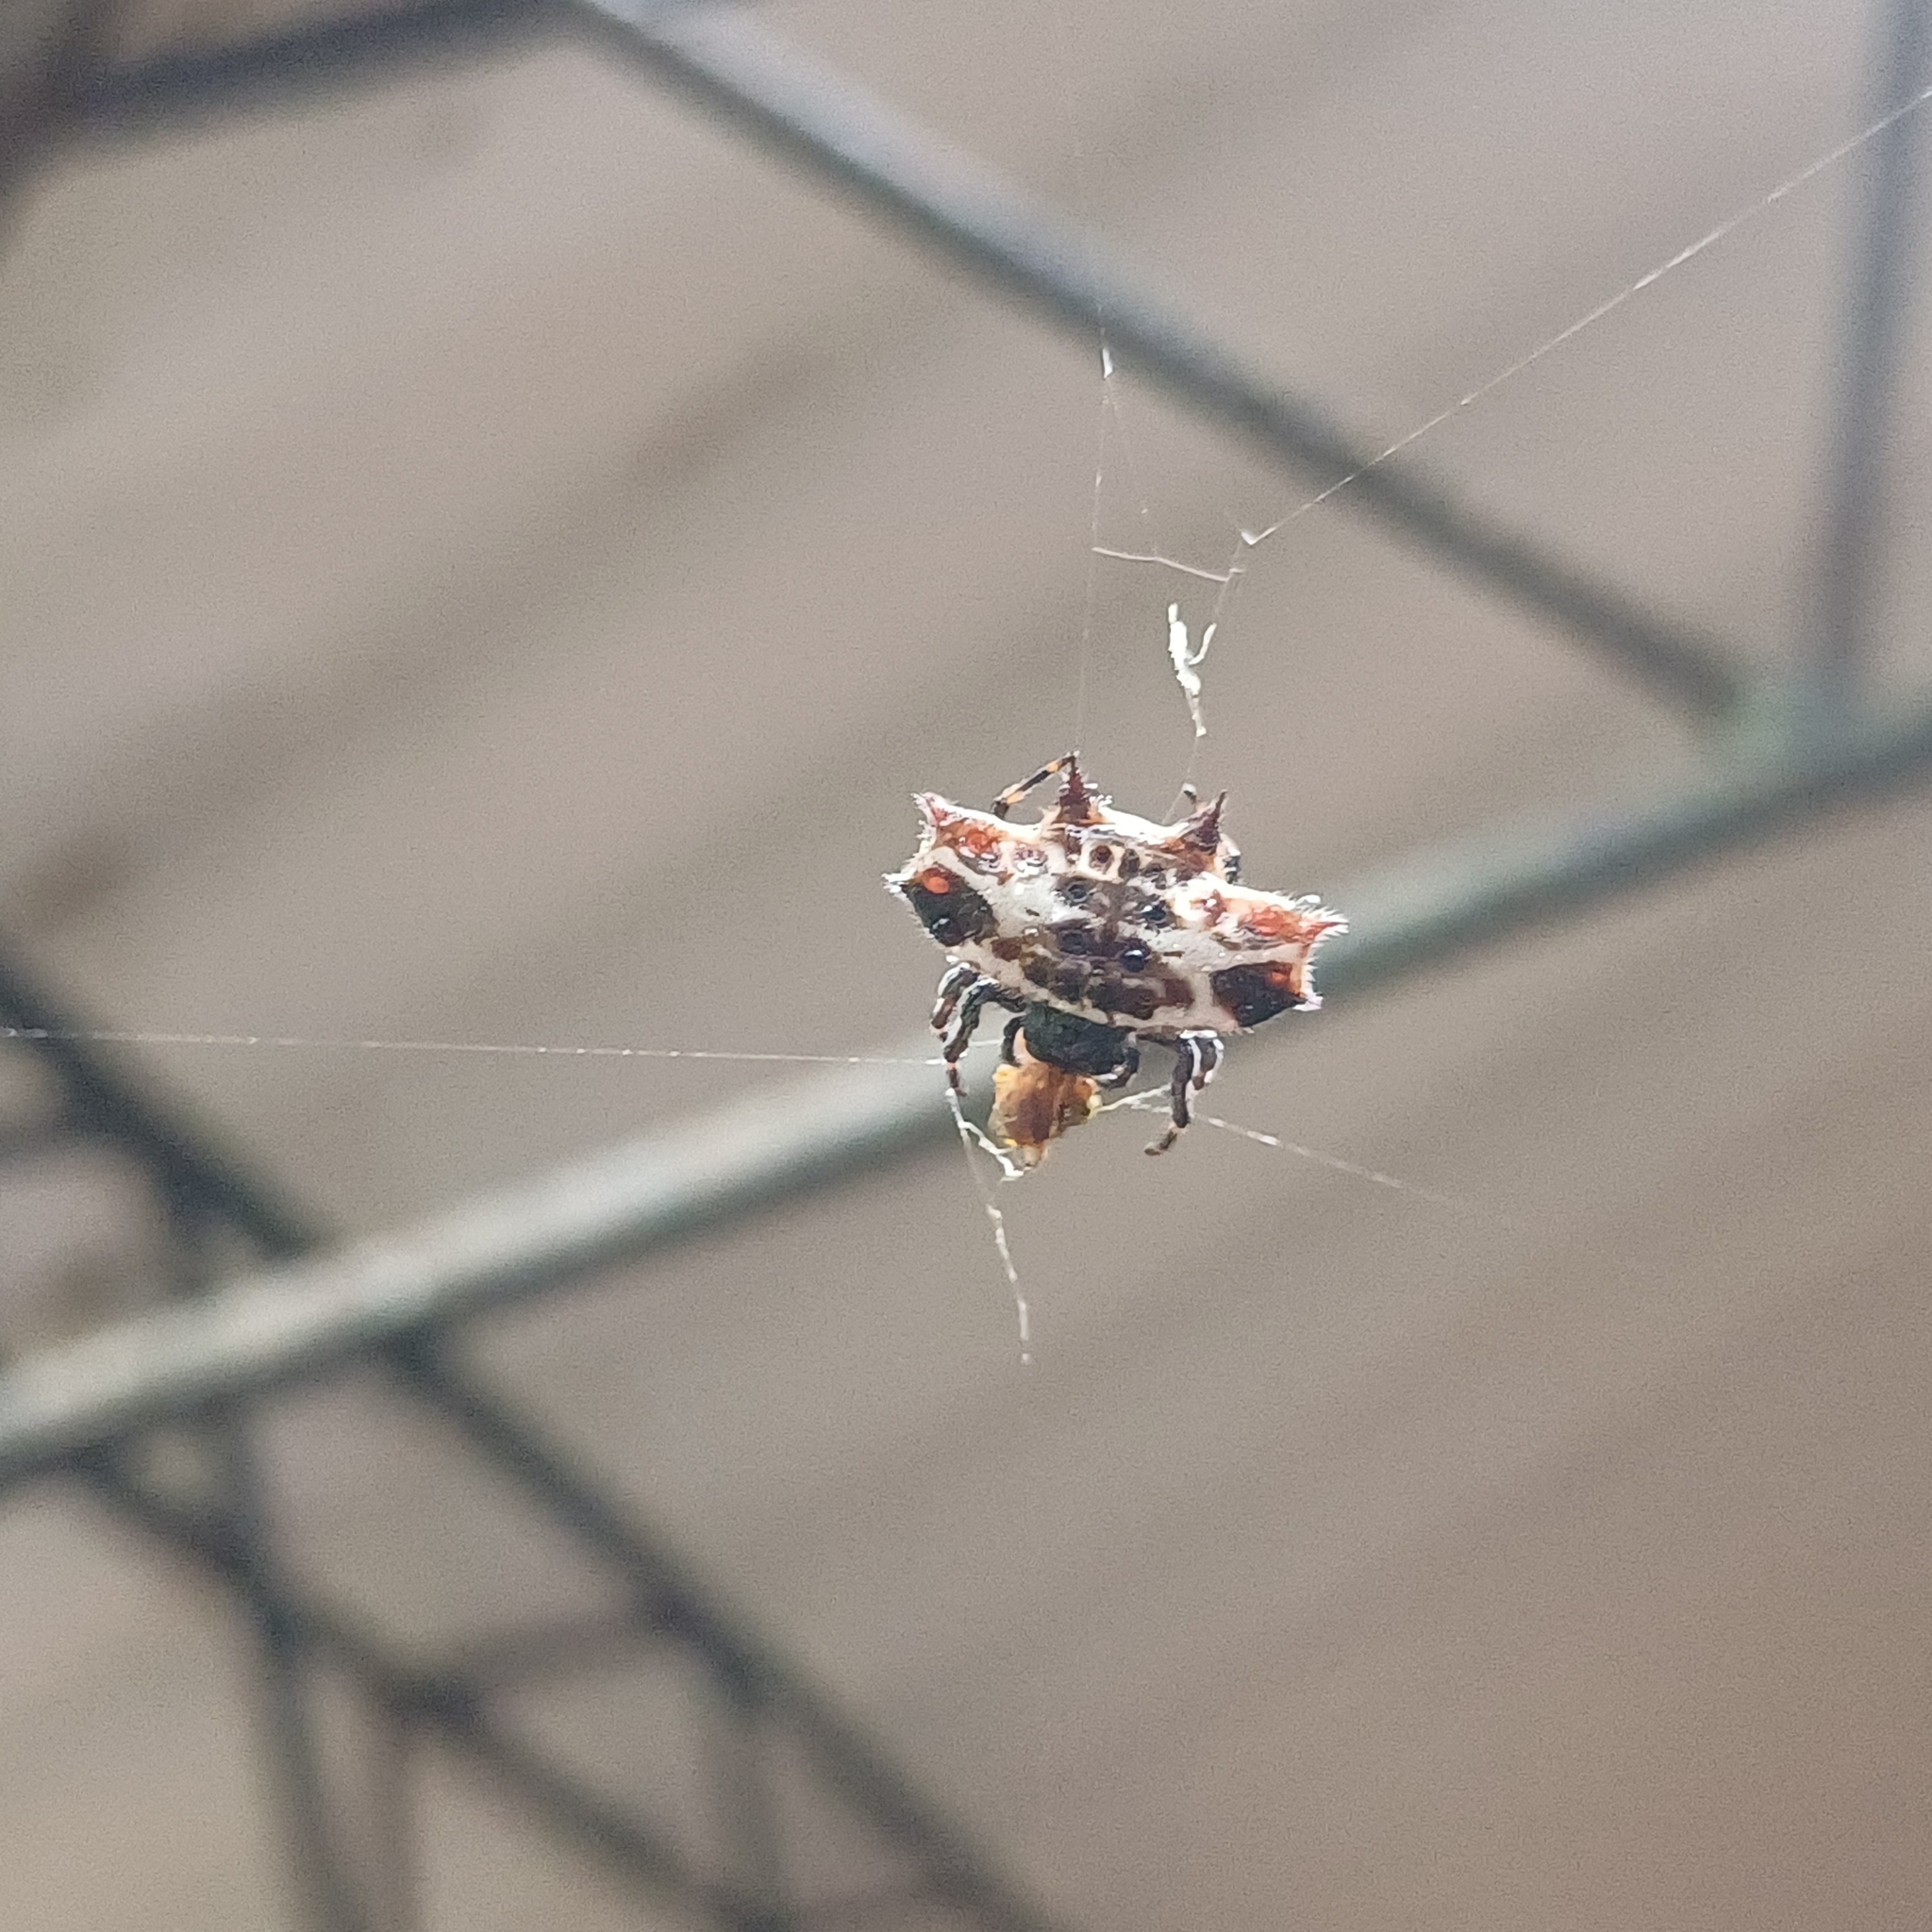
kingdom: Animalia
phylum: Arthropoda
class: Arachnida
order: Araneae
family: Araneidae
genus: Gasteracantha
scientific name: Gasteracantha cancriformis
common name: Orb weavers
